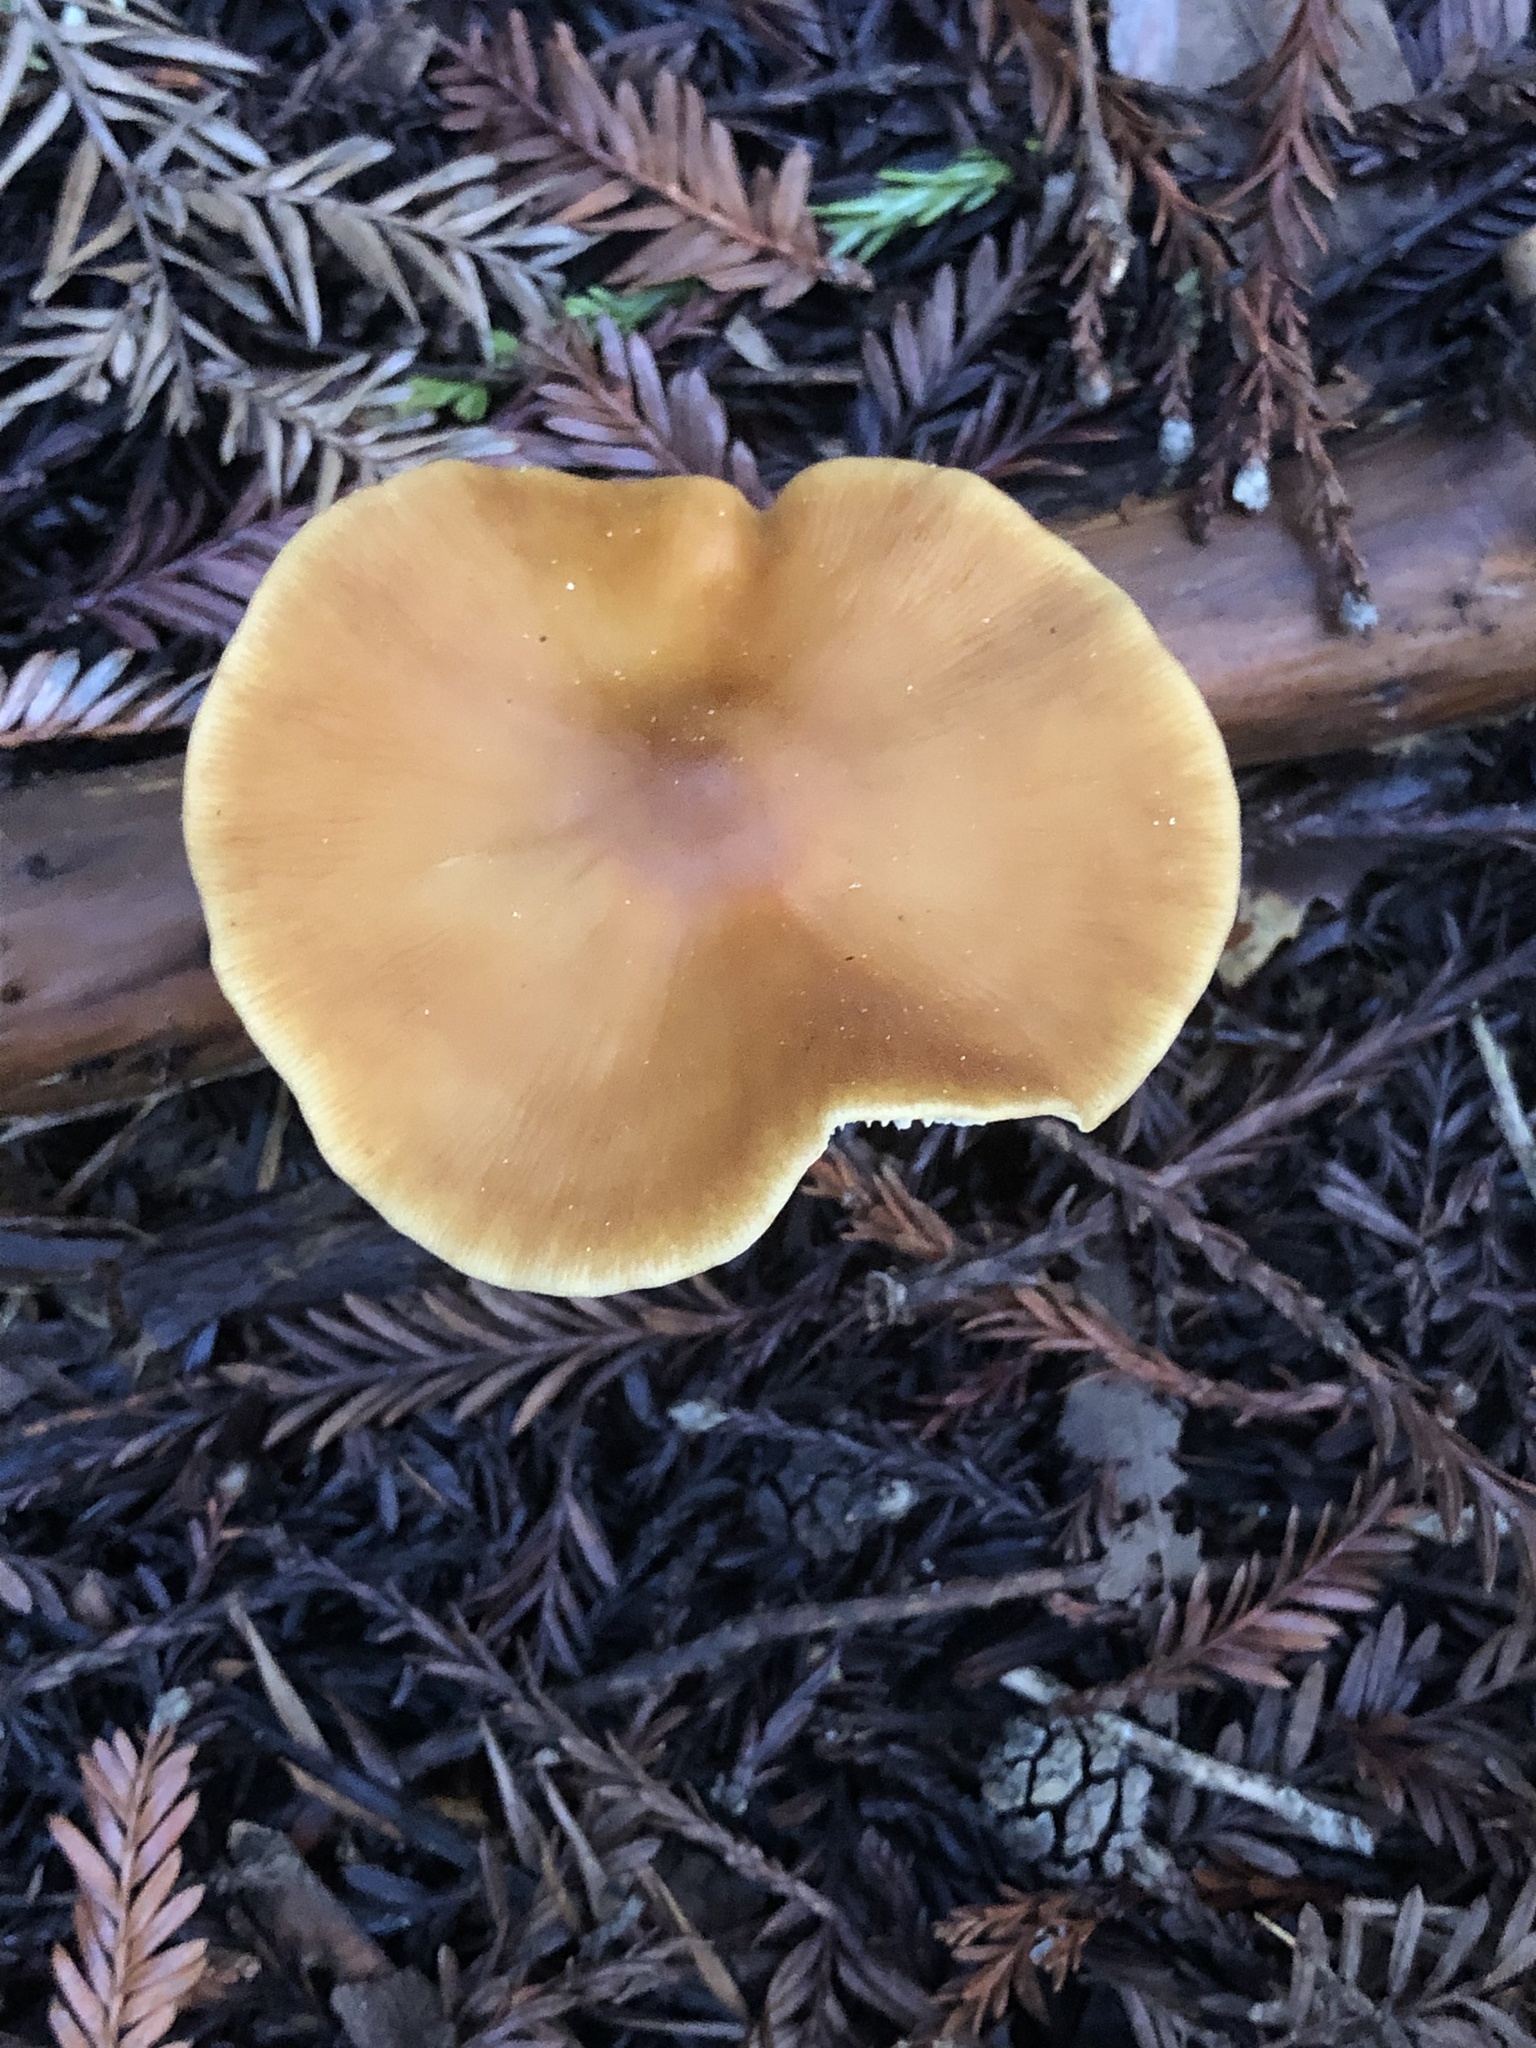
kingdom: Fungi
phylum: Basidiomycota
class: Agaricomycetes
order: Agaricales
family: Tricholomataceae
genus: Caulorhiza
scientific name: Caulorhiza umbonata
